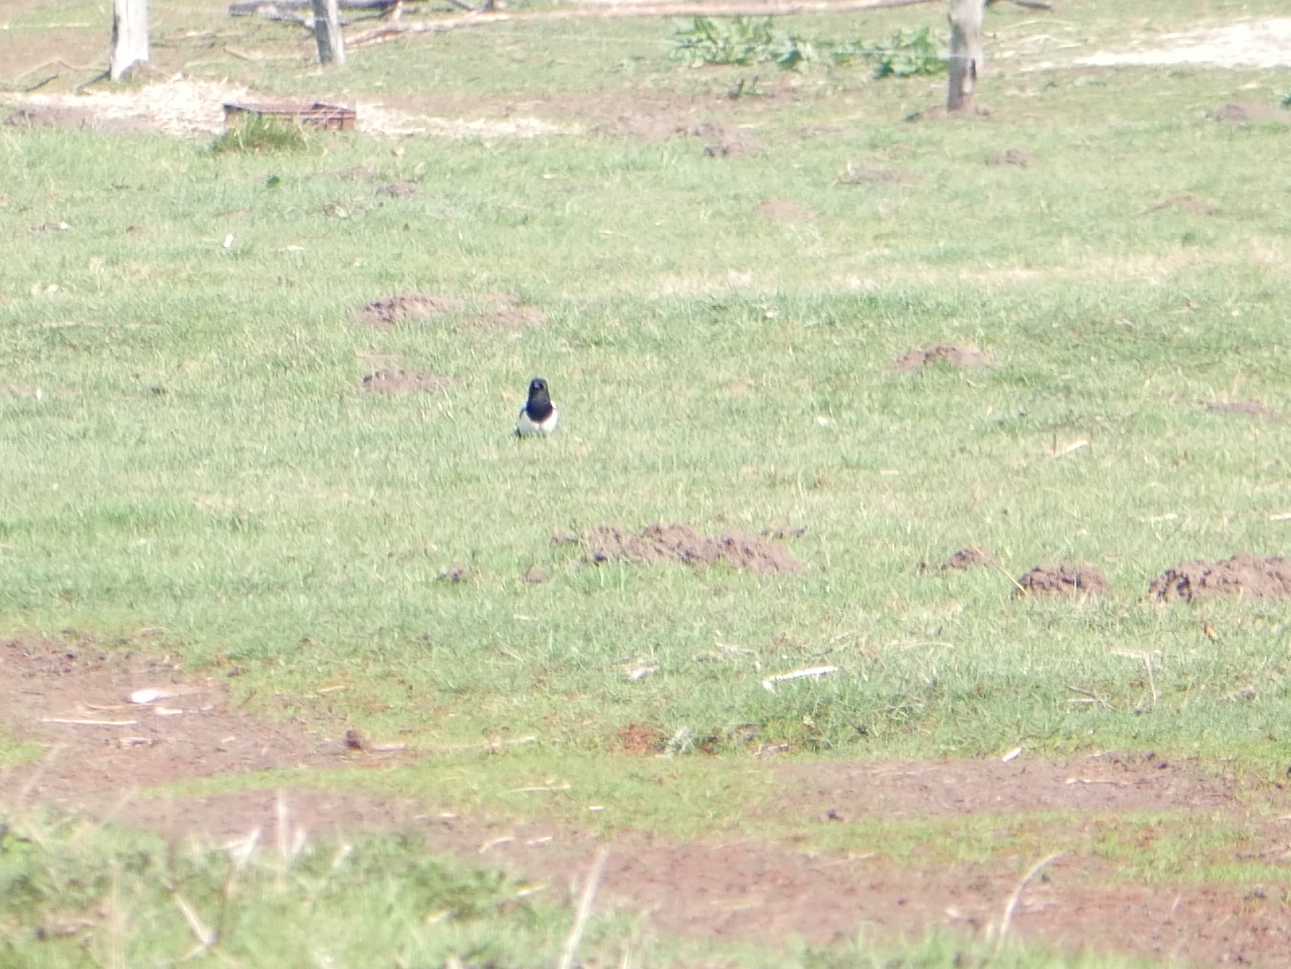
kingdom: Animalia
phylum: Chordata
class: Aves
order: Passeriformes
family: Corvidae
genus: Pica
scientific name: Pica pica
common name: Eurasian magpie
